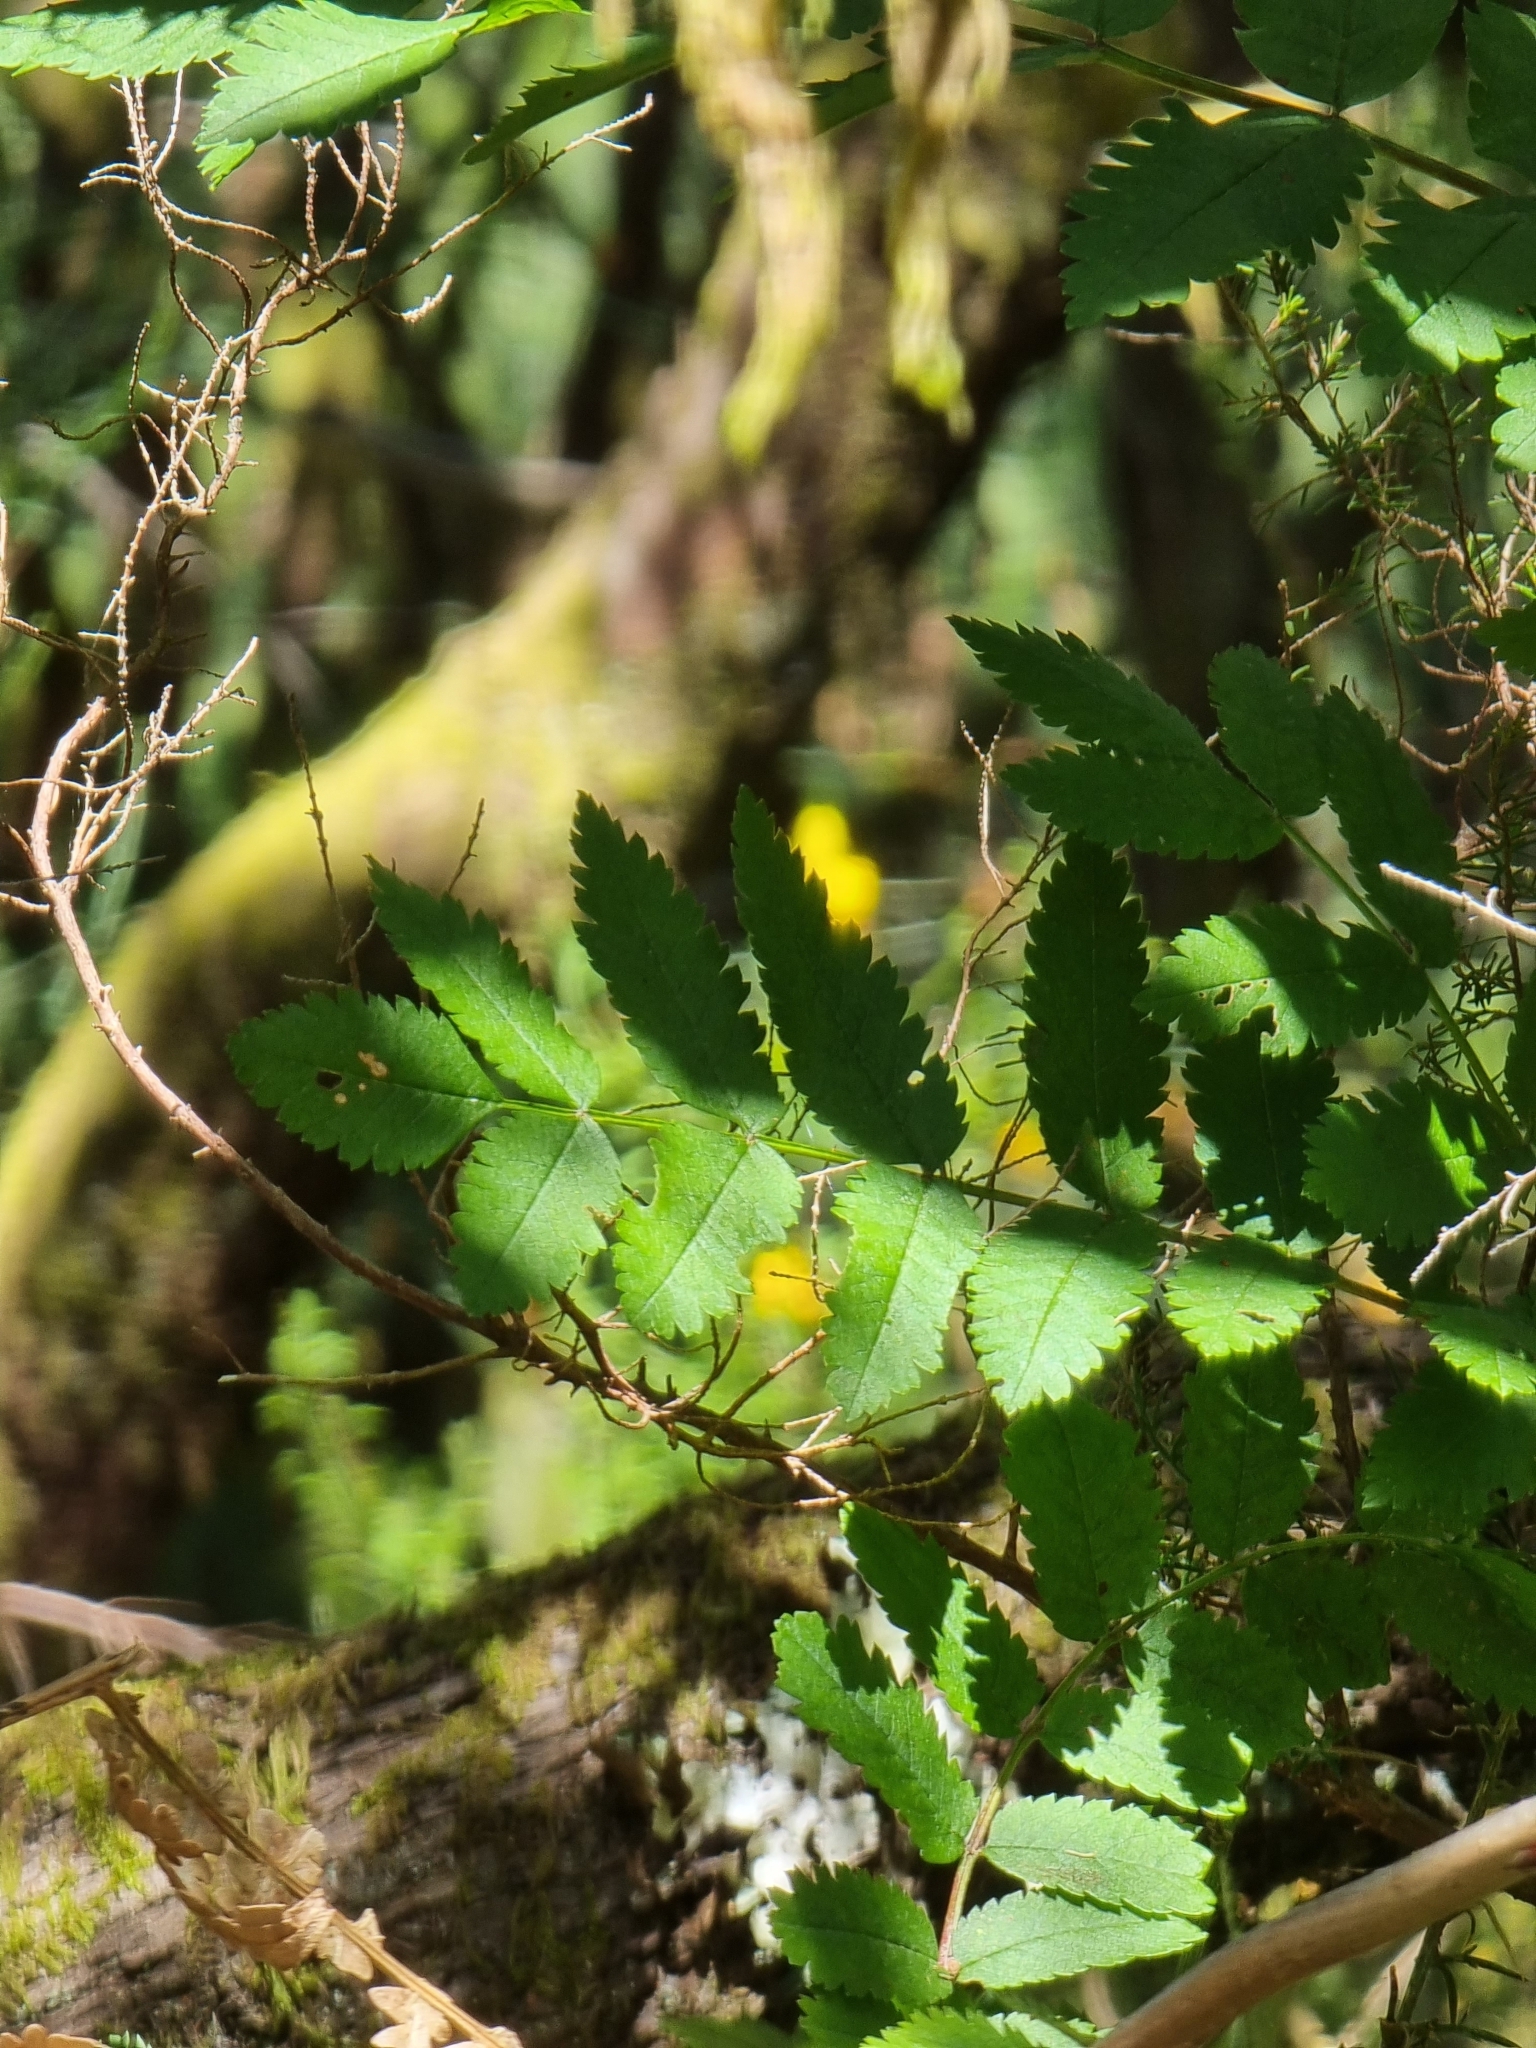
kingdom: Plantae
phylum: Tracheophyta
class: Magnoliopsida
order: Rosales
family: Rosaceae
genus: Sorbus
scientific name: Sorbus maderensis
